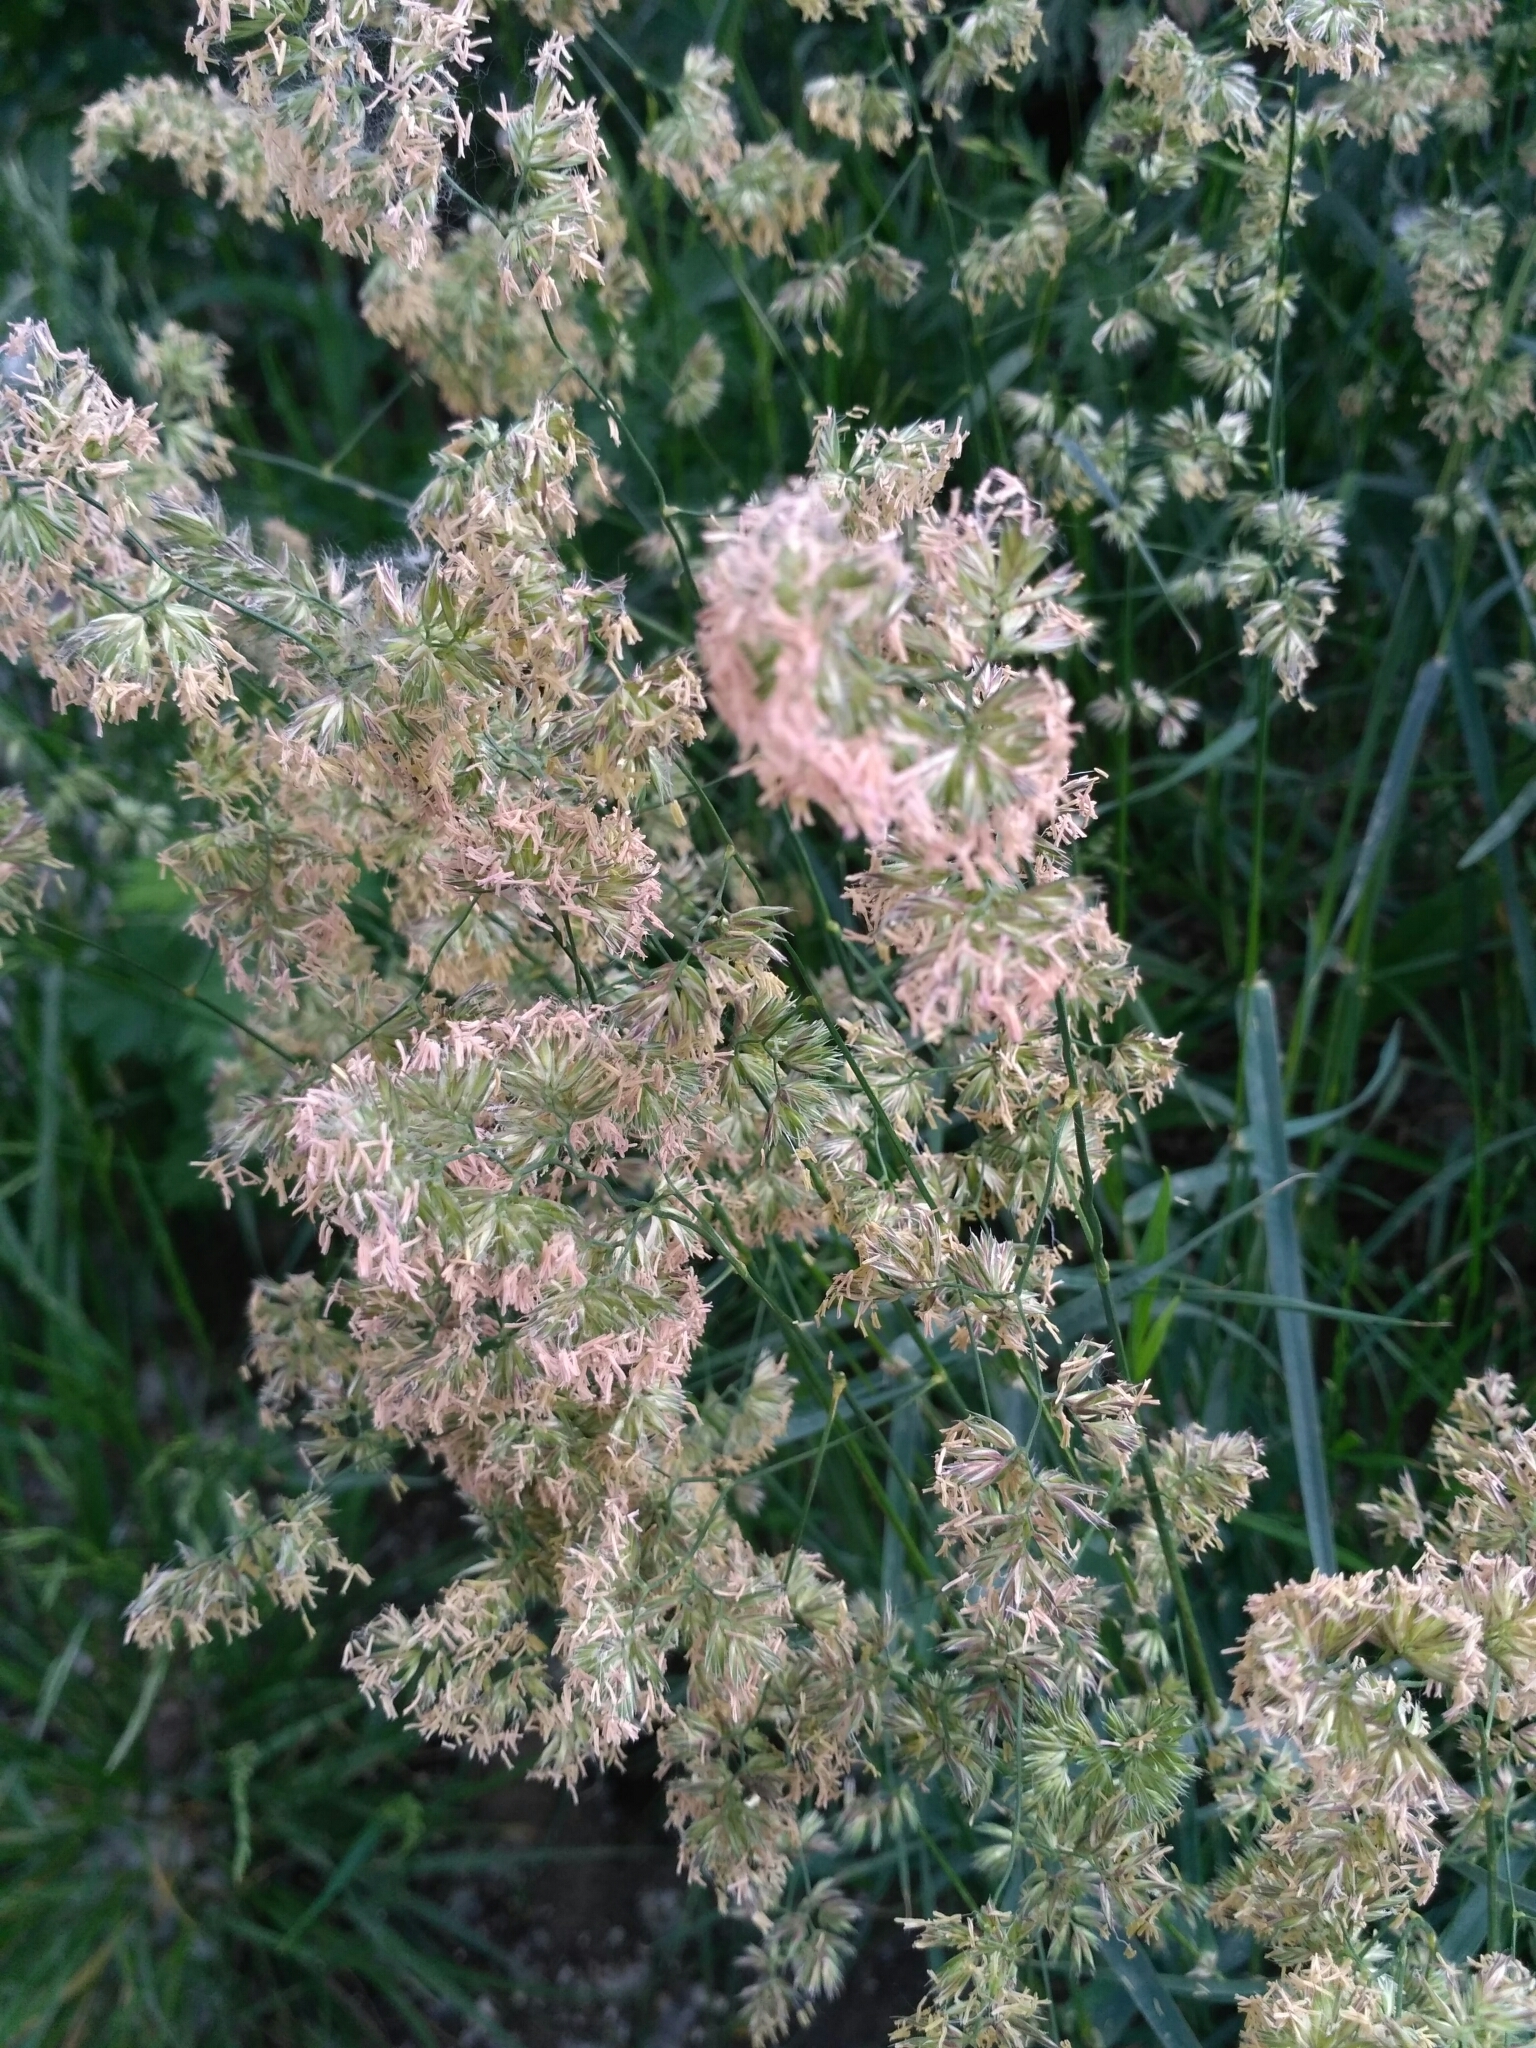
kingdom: Plantae
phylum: Tracheophyta
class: Liliopsida
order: Poales
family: Poaceae
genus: Dactylis
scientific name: Dactylis glomerata
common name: Orchardgrass
